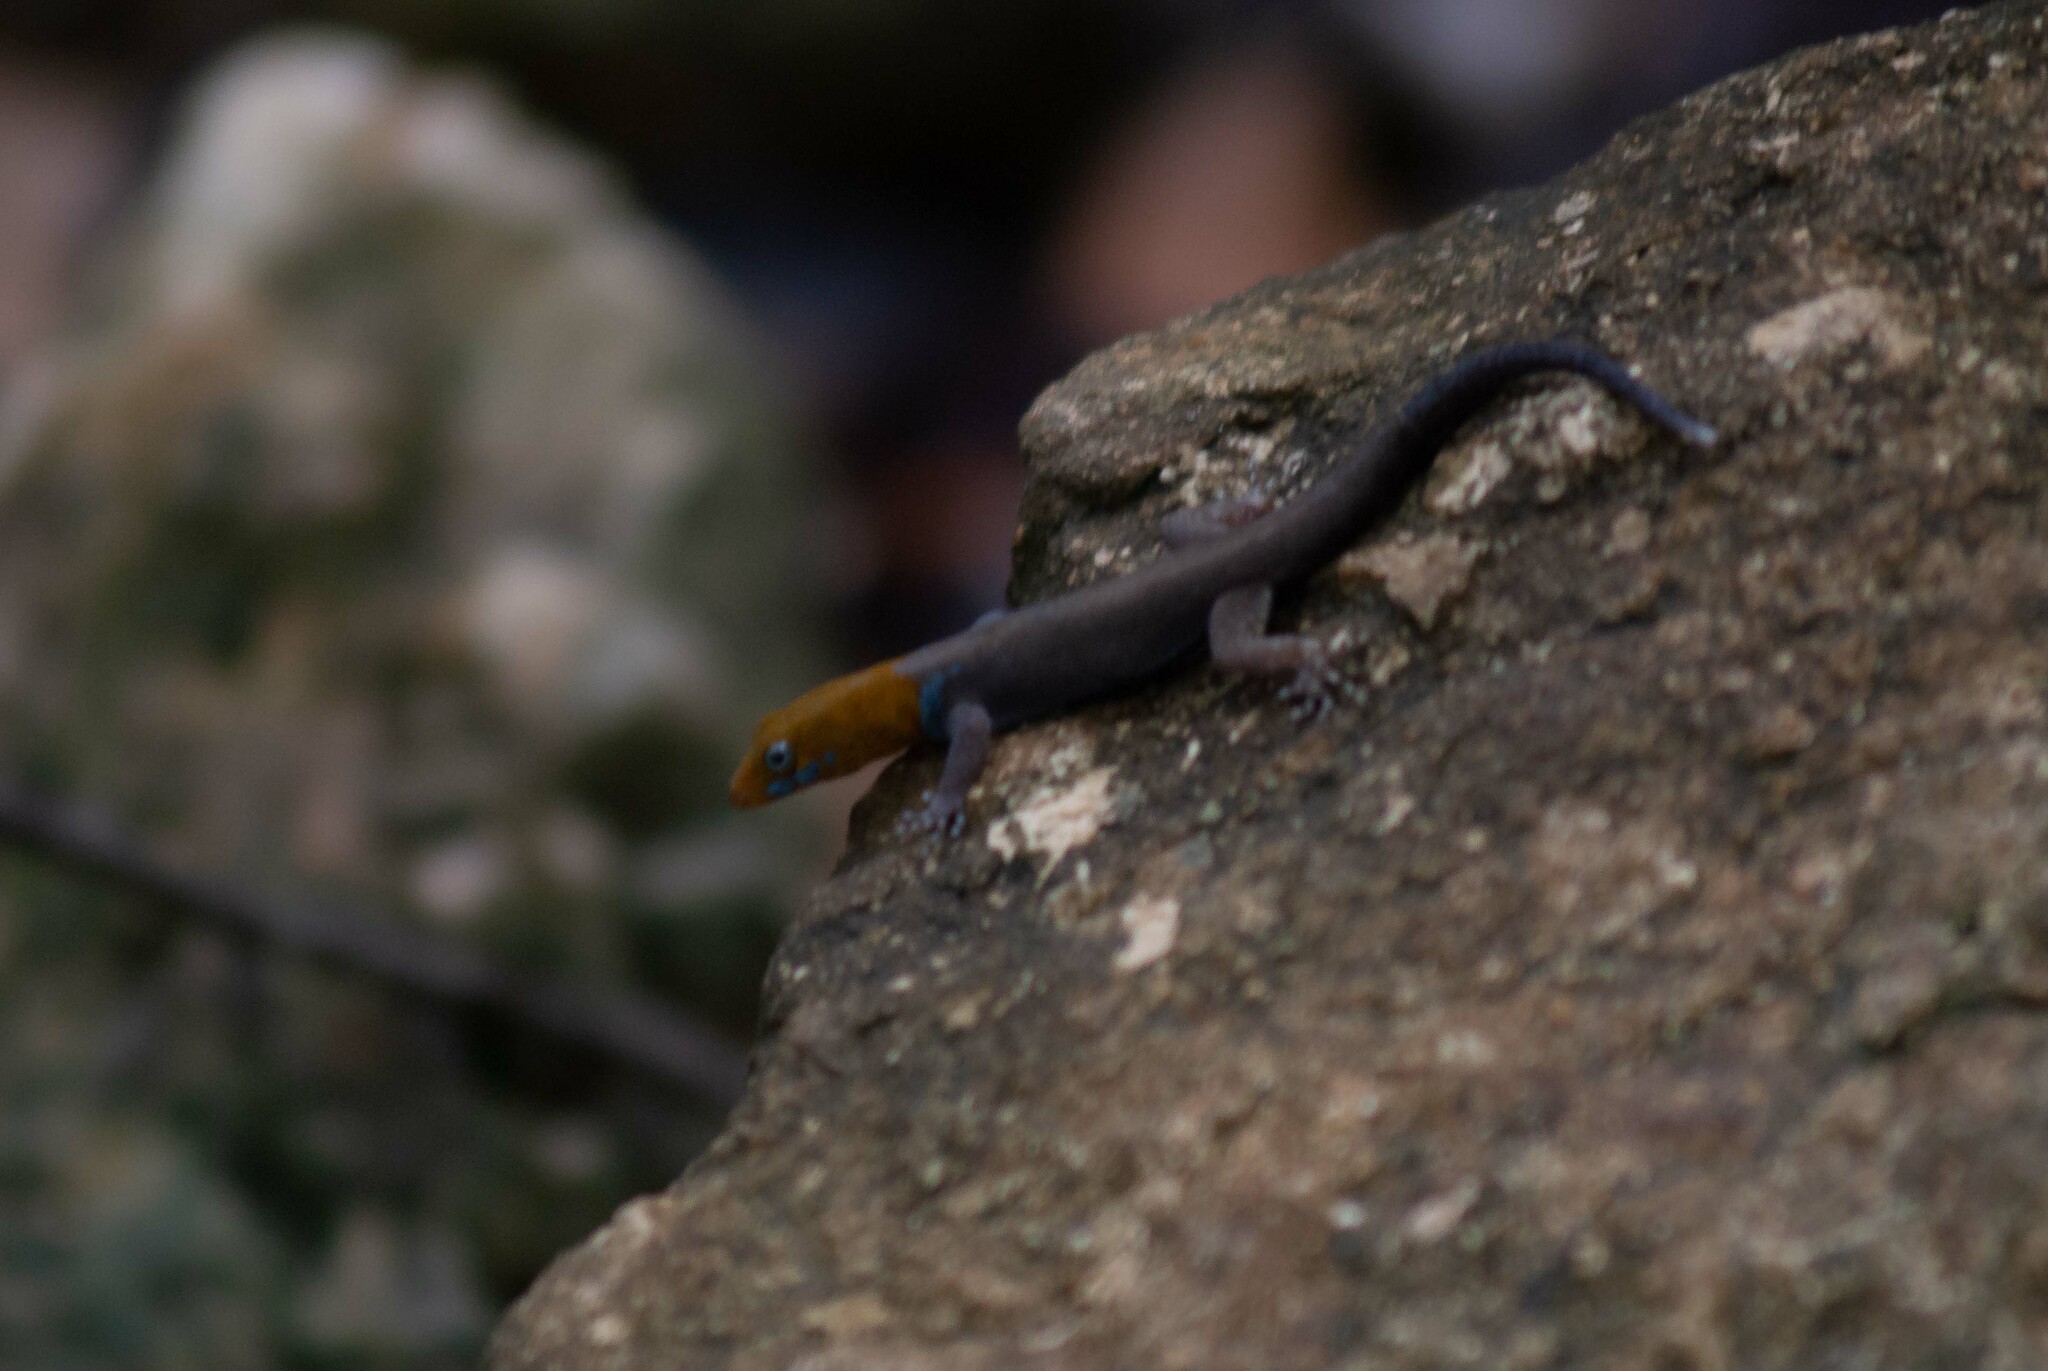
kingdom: Animalia
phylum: Chordata
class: Squamata
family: Sphaerodactylidae
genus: Gonatodes
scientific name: Gonatodes albogularis
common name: Yellow-headed gecko
